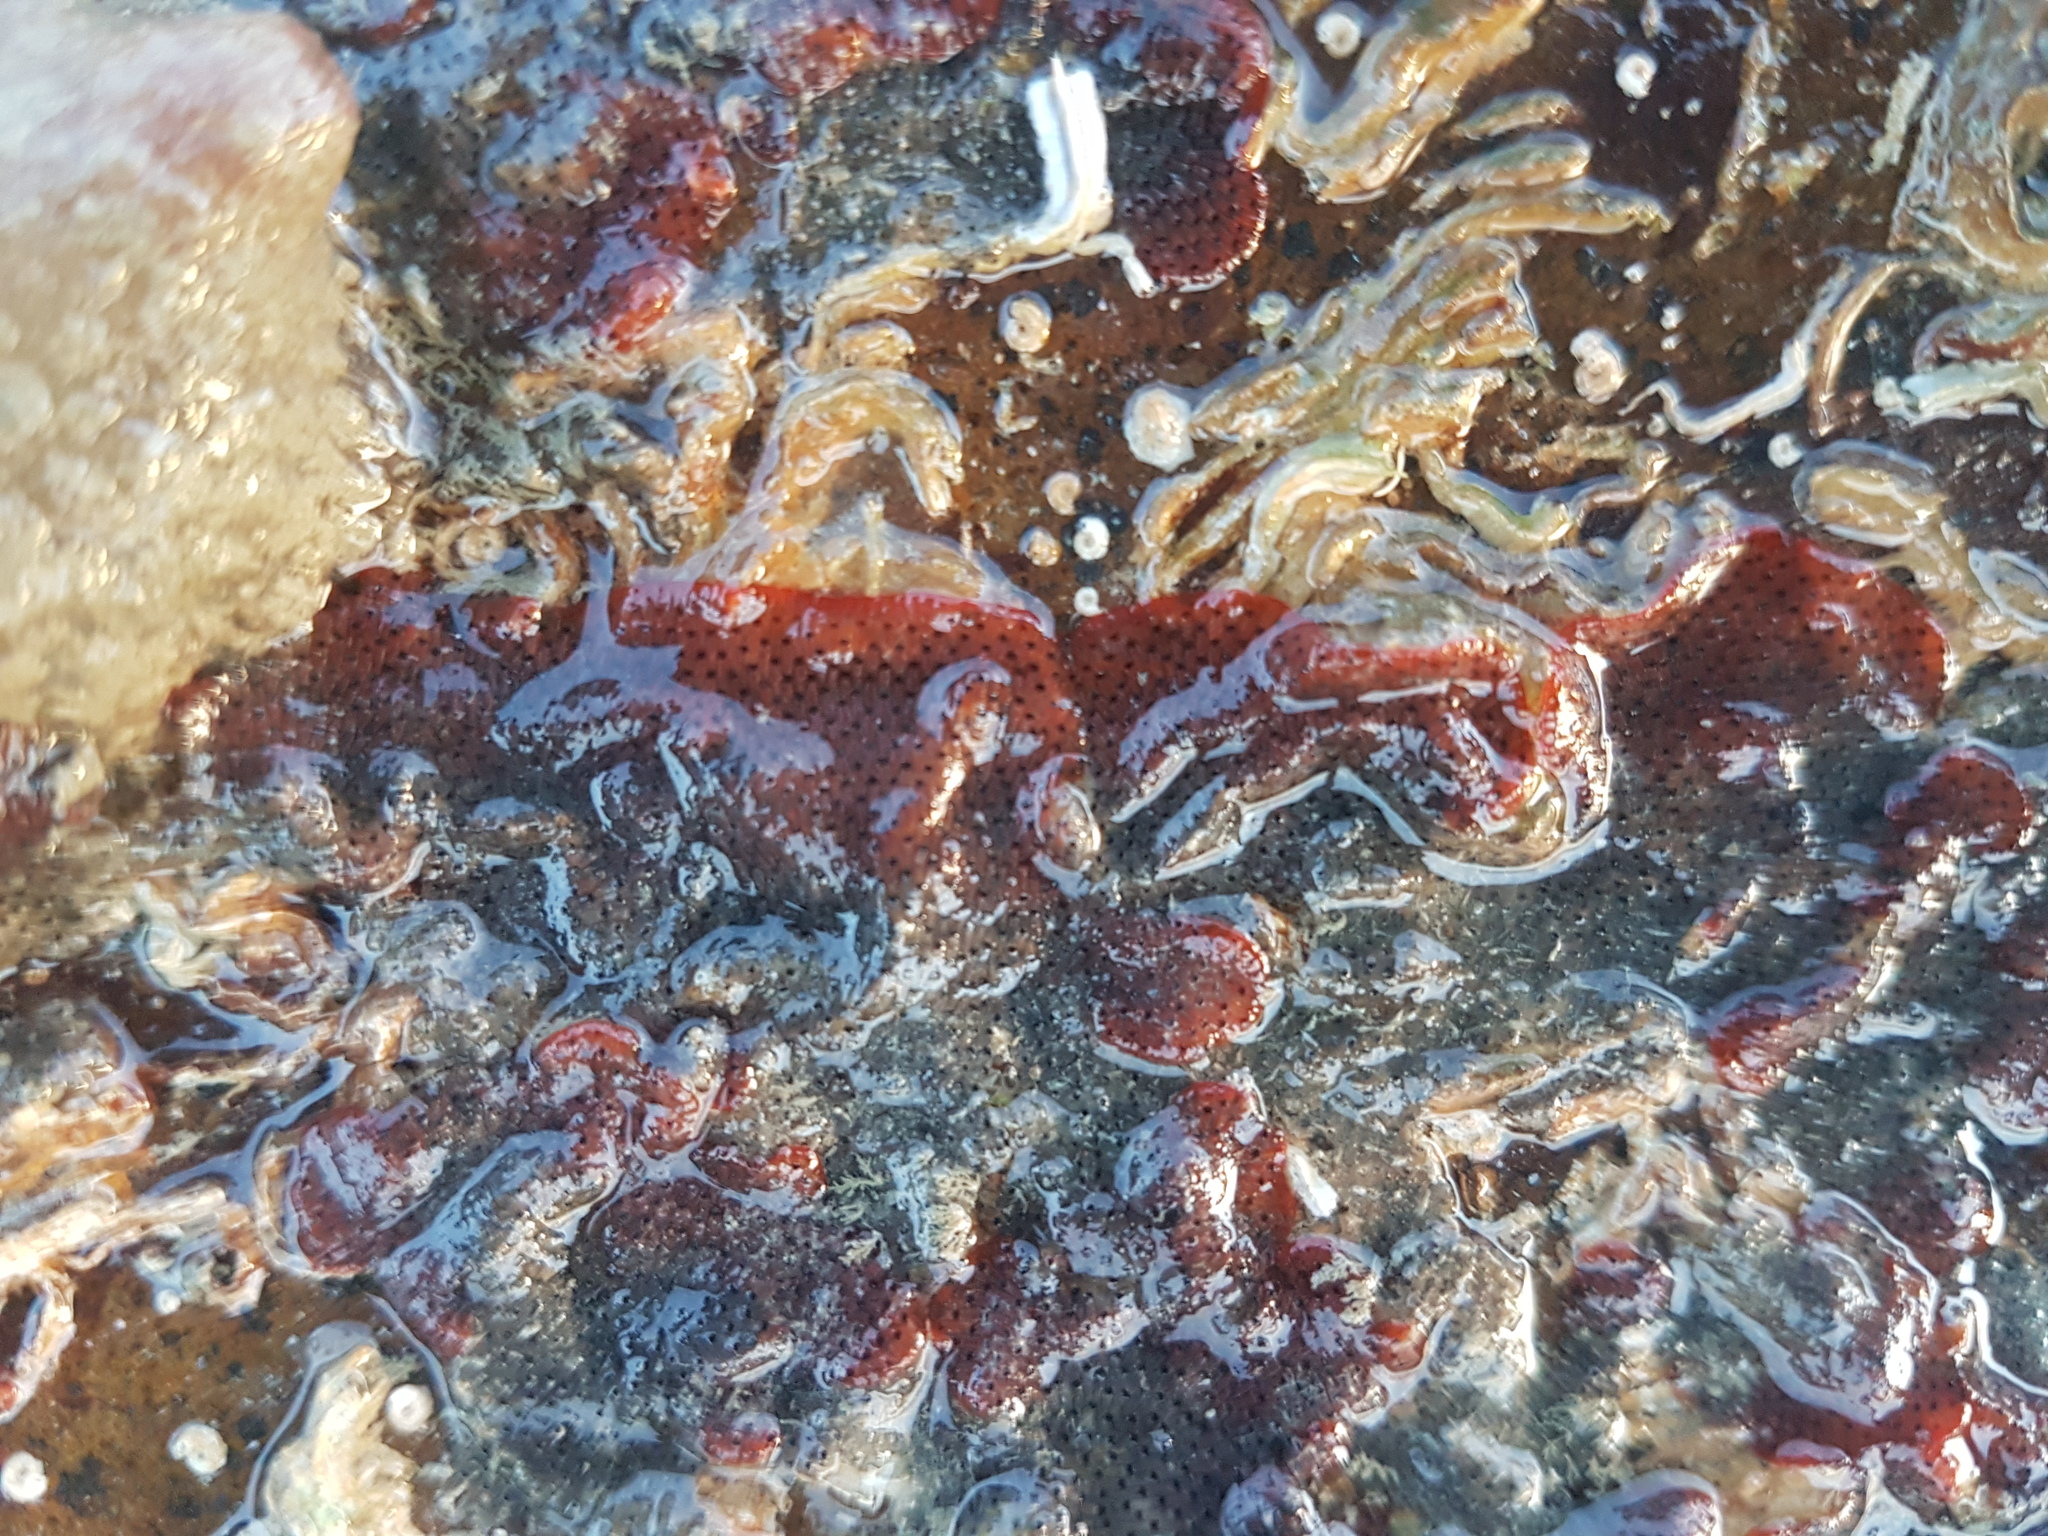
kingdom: Animalia
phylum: Bryozoa
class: Gymnolaemata
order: Cheilostomatida
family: Watersiporidae
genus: Watersipora
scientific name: Watersipora cucullata
